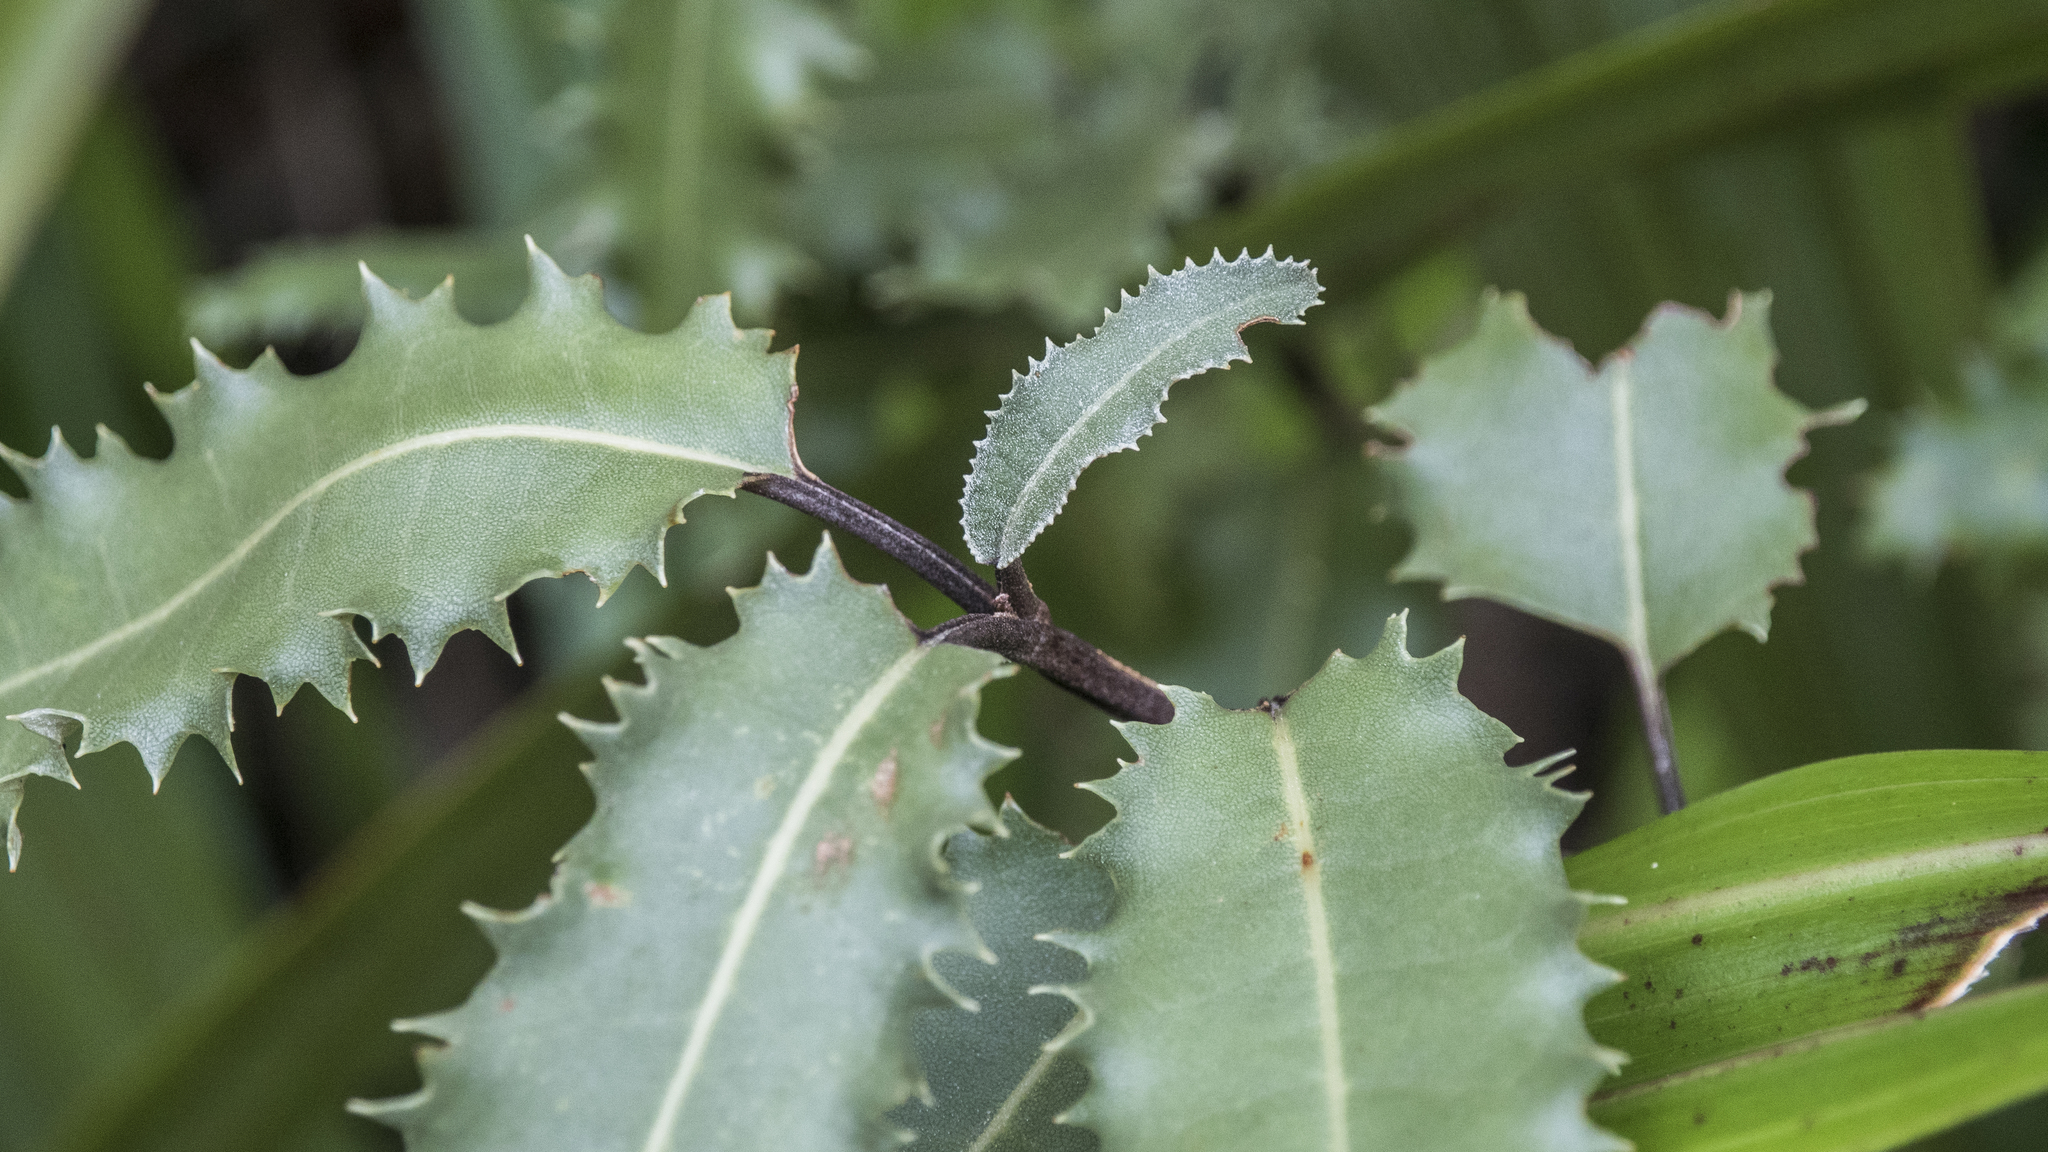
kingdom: Plantae
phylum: Tracheophyta
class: Magnoliopsida
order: Asterales
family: Asteraceae
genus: Olearia
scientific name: Olearia ilicifolia
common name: Maori-holly
